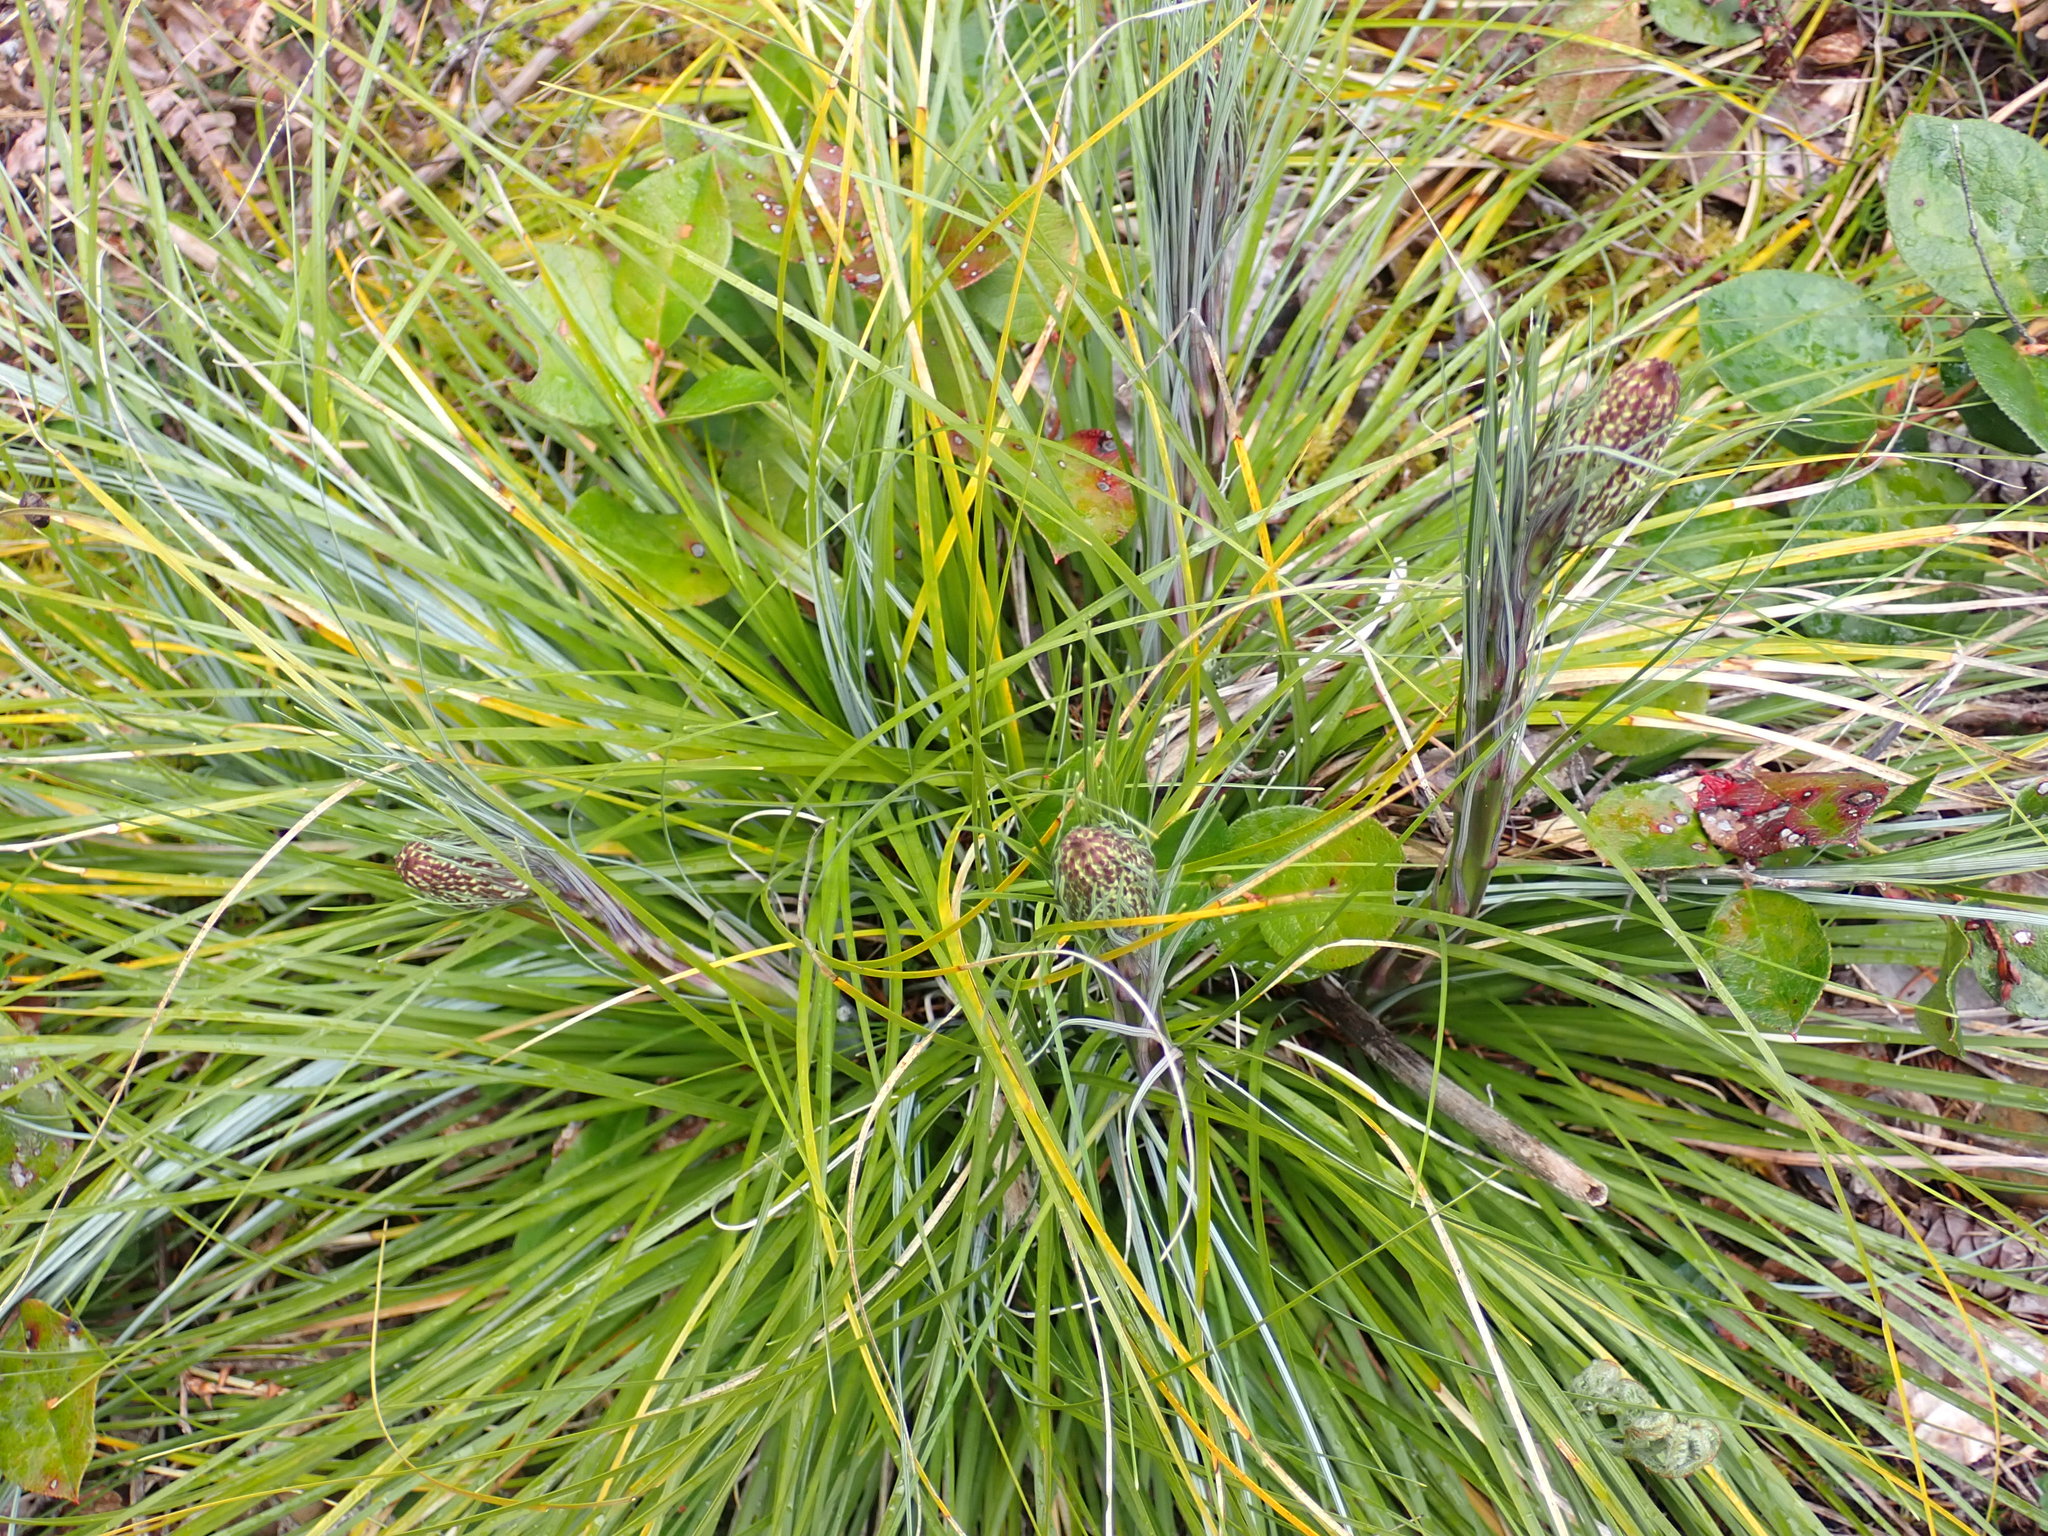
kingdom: Plantae
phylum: Tracheophyta
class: Liliopsida
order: Liliales
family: Melanthiaceae
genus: Xerophyllum
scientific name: Xerophyllum tenax
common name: Bear-grass
